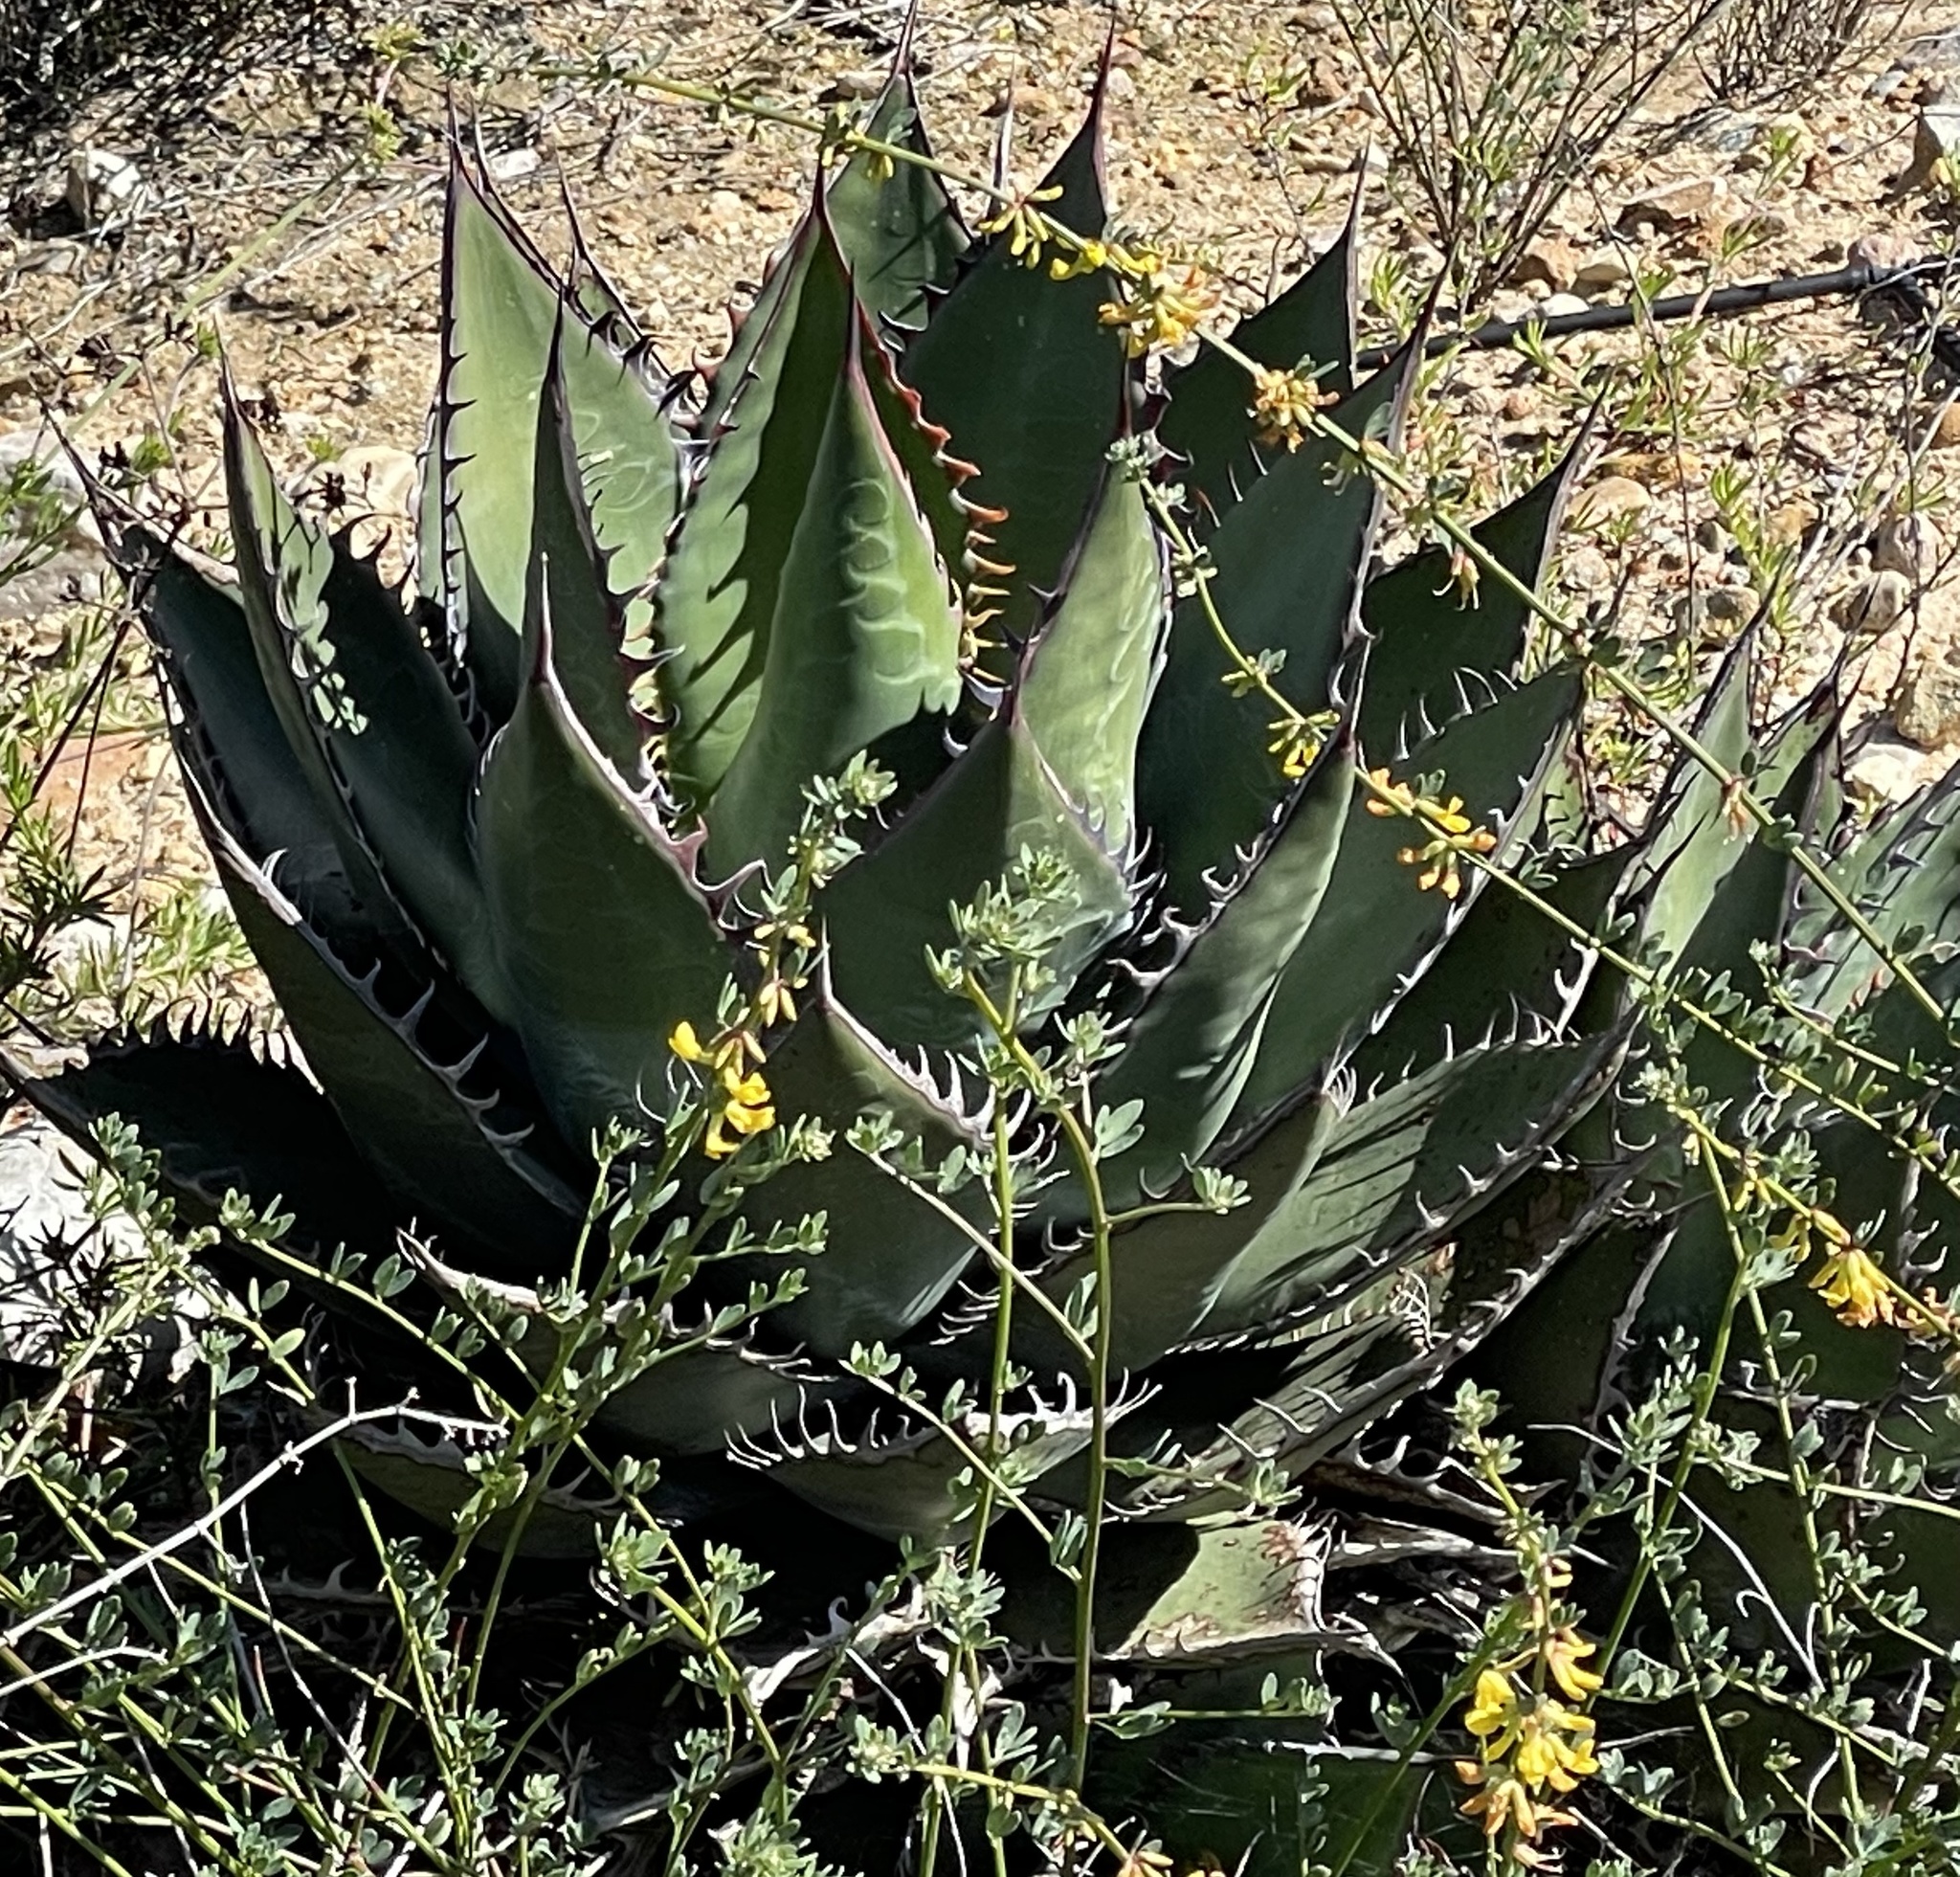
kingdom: Plantae
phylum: Tracheophyta
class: Liliopsida
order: Asparagales
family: Asparagaceae
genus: Agave
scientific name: Agave shawii
